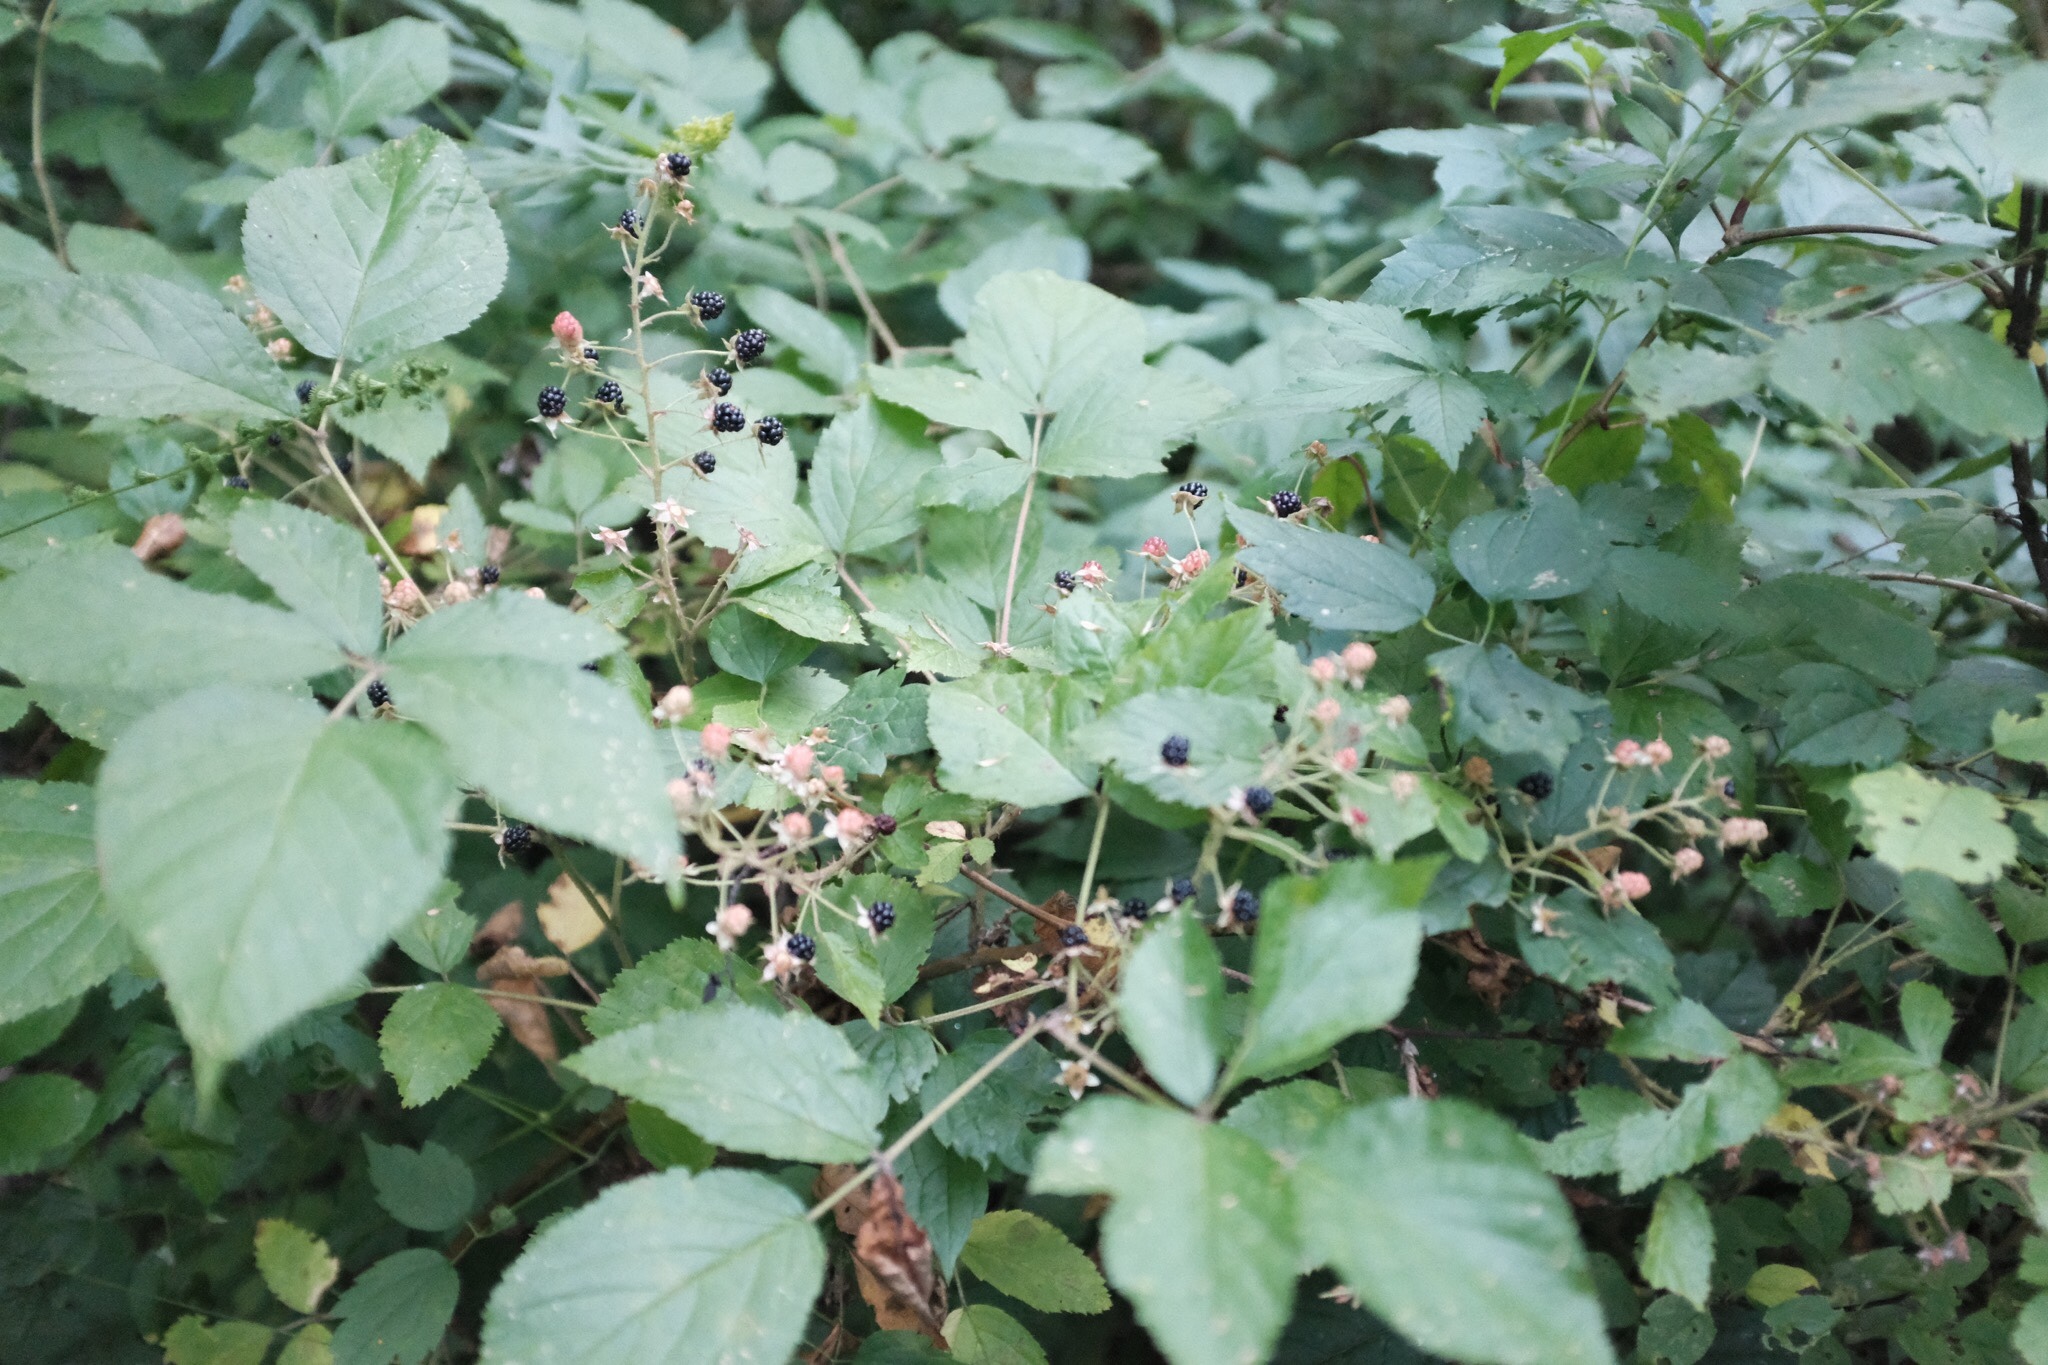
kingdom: Plantae
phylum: Tracheophyta
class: Magnoliopsida
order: Rosales
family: Rosaceae
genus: Rubus
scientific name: Rubus allegheniensis
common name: Allegheny blackberry
